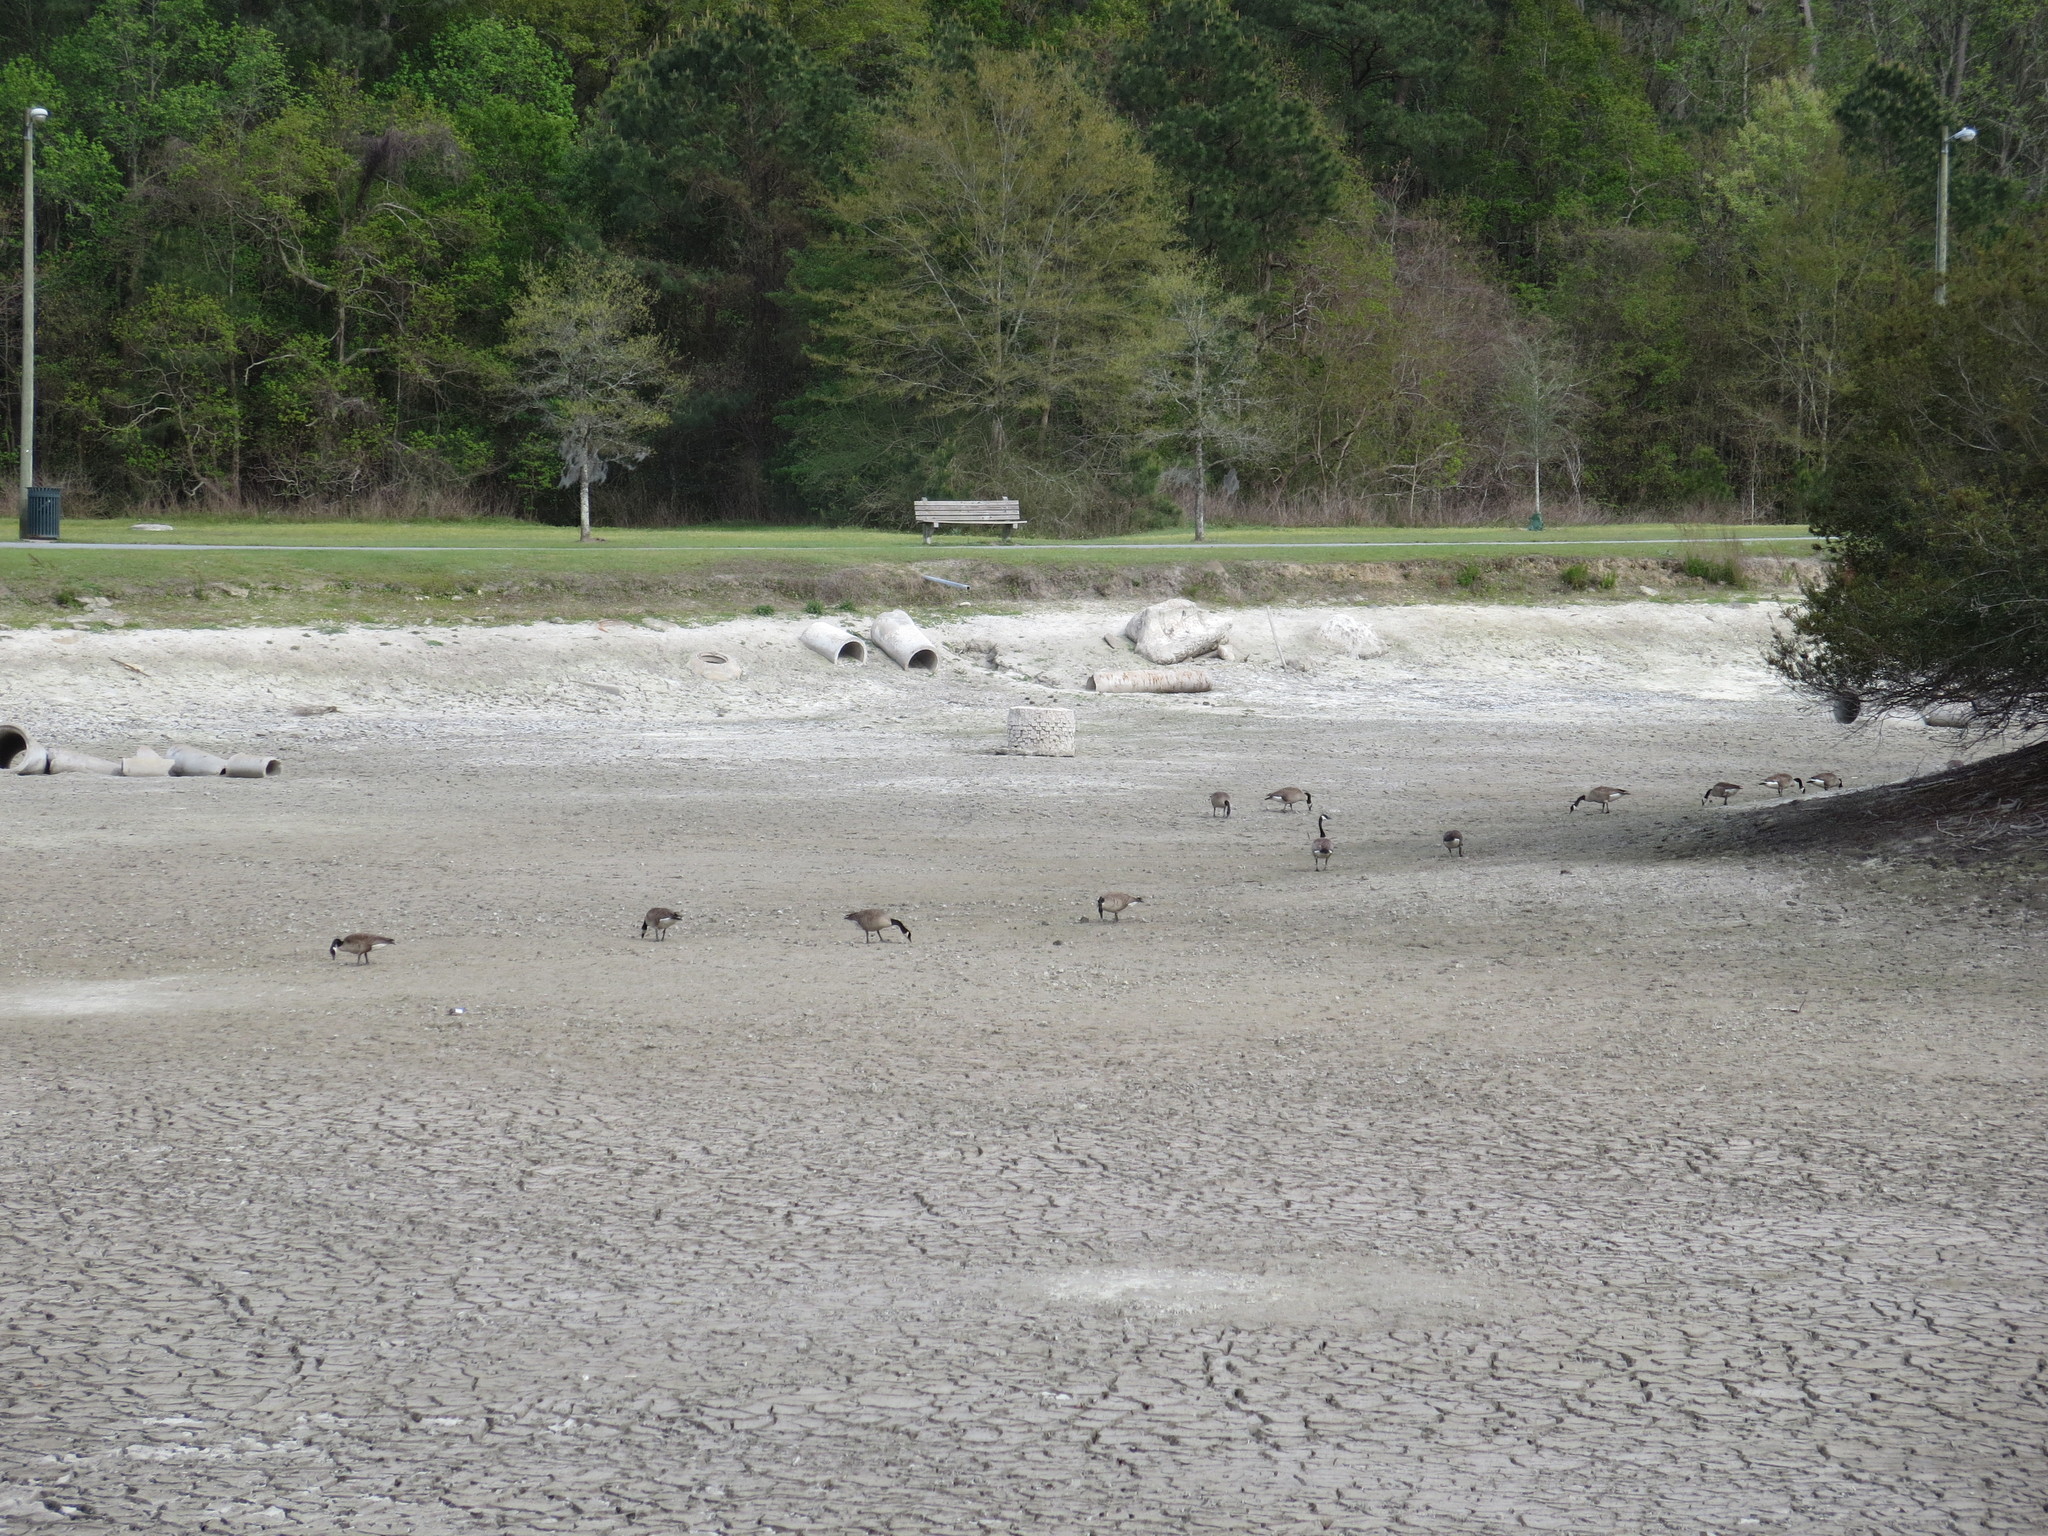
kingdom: Animalia
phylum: Chordata
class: Aves
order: Anseriformes
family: Anatidae
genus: Branta
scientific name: Branta canadensis
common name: Canada goose
